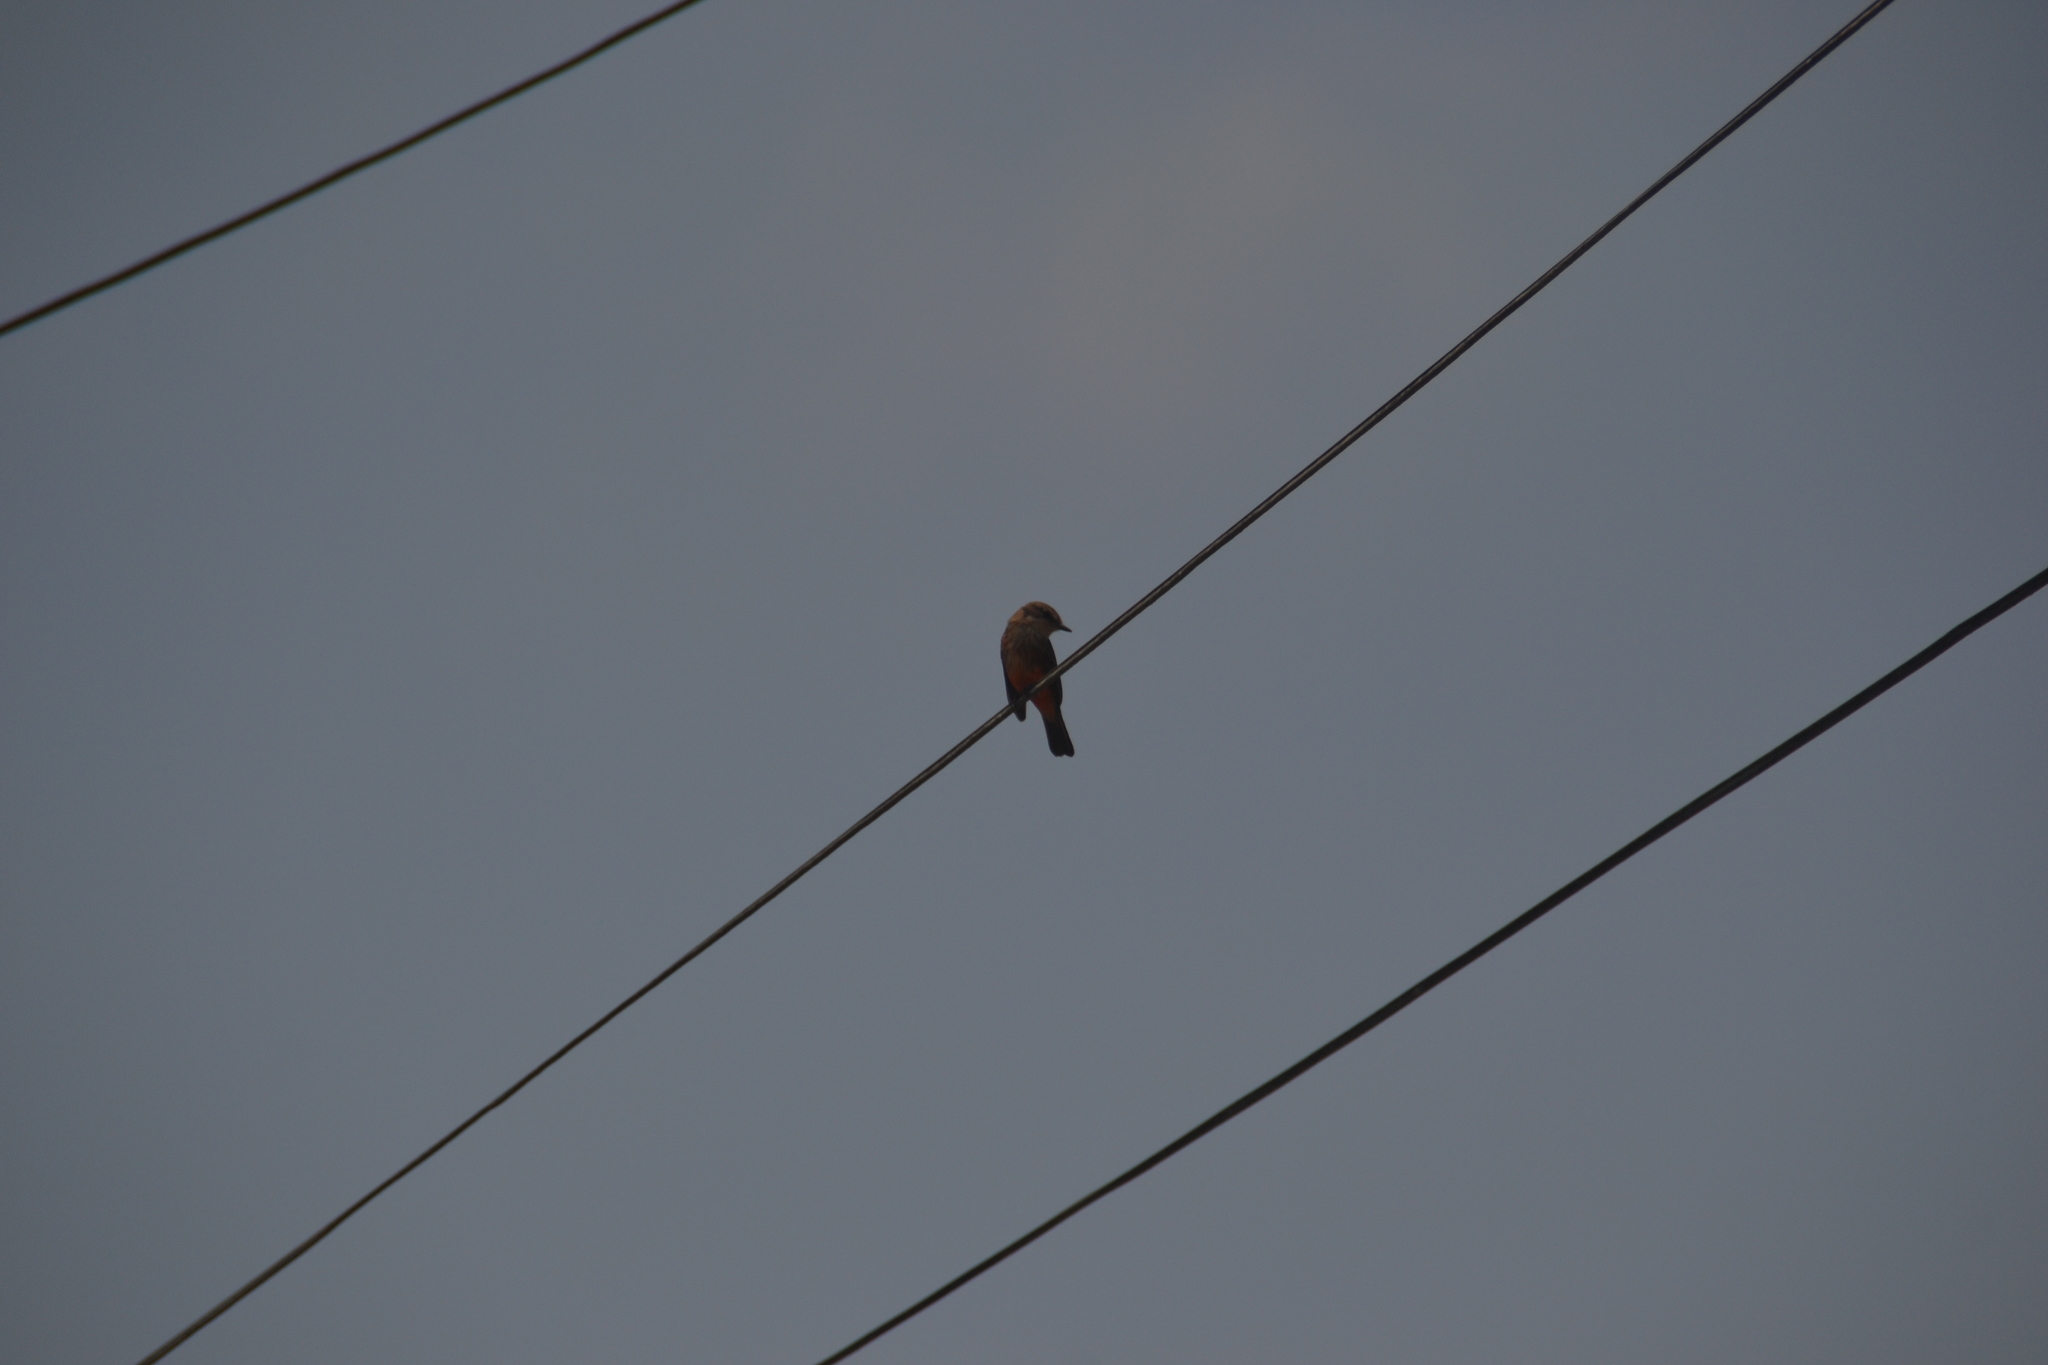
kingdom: Animalia
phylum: Chordata
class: Aves
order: Passeriformes
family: Tyrannidae
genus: Pyrocephalus
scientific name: Pyrocephalus rubinus
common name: Vermilion flycatcher
